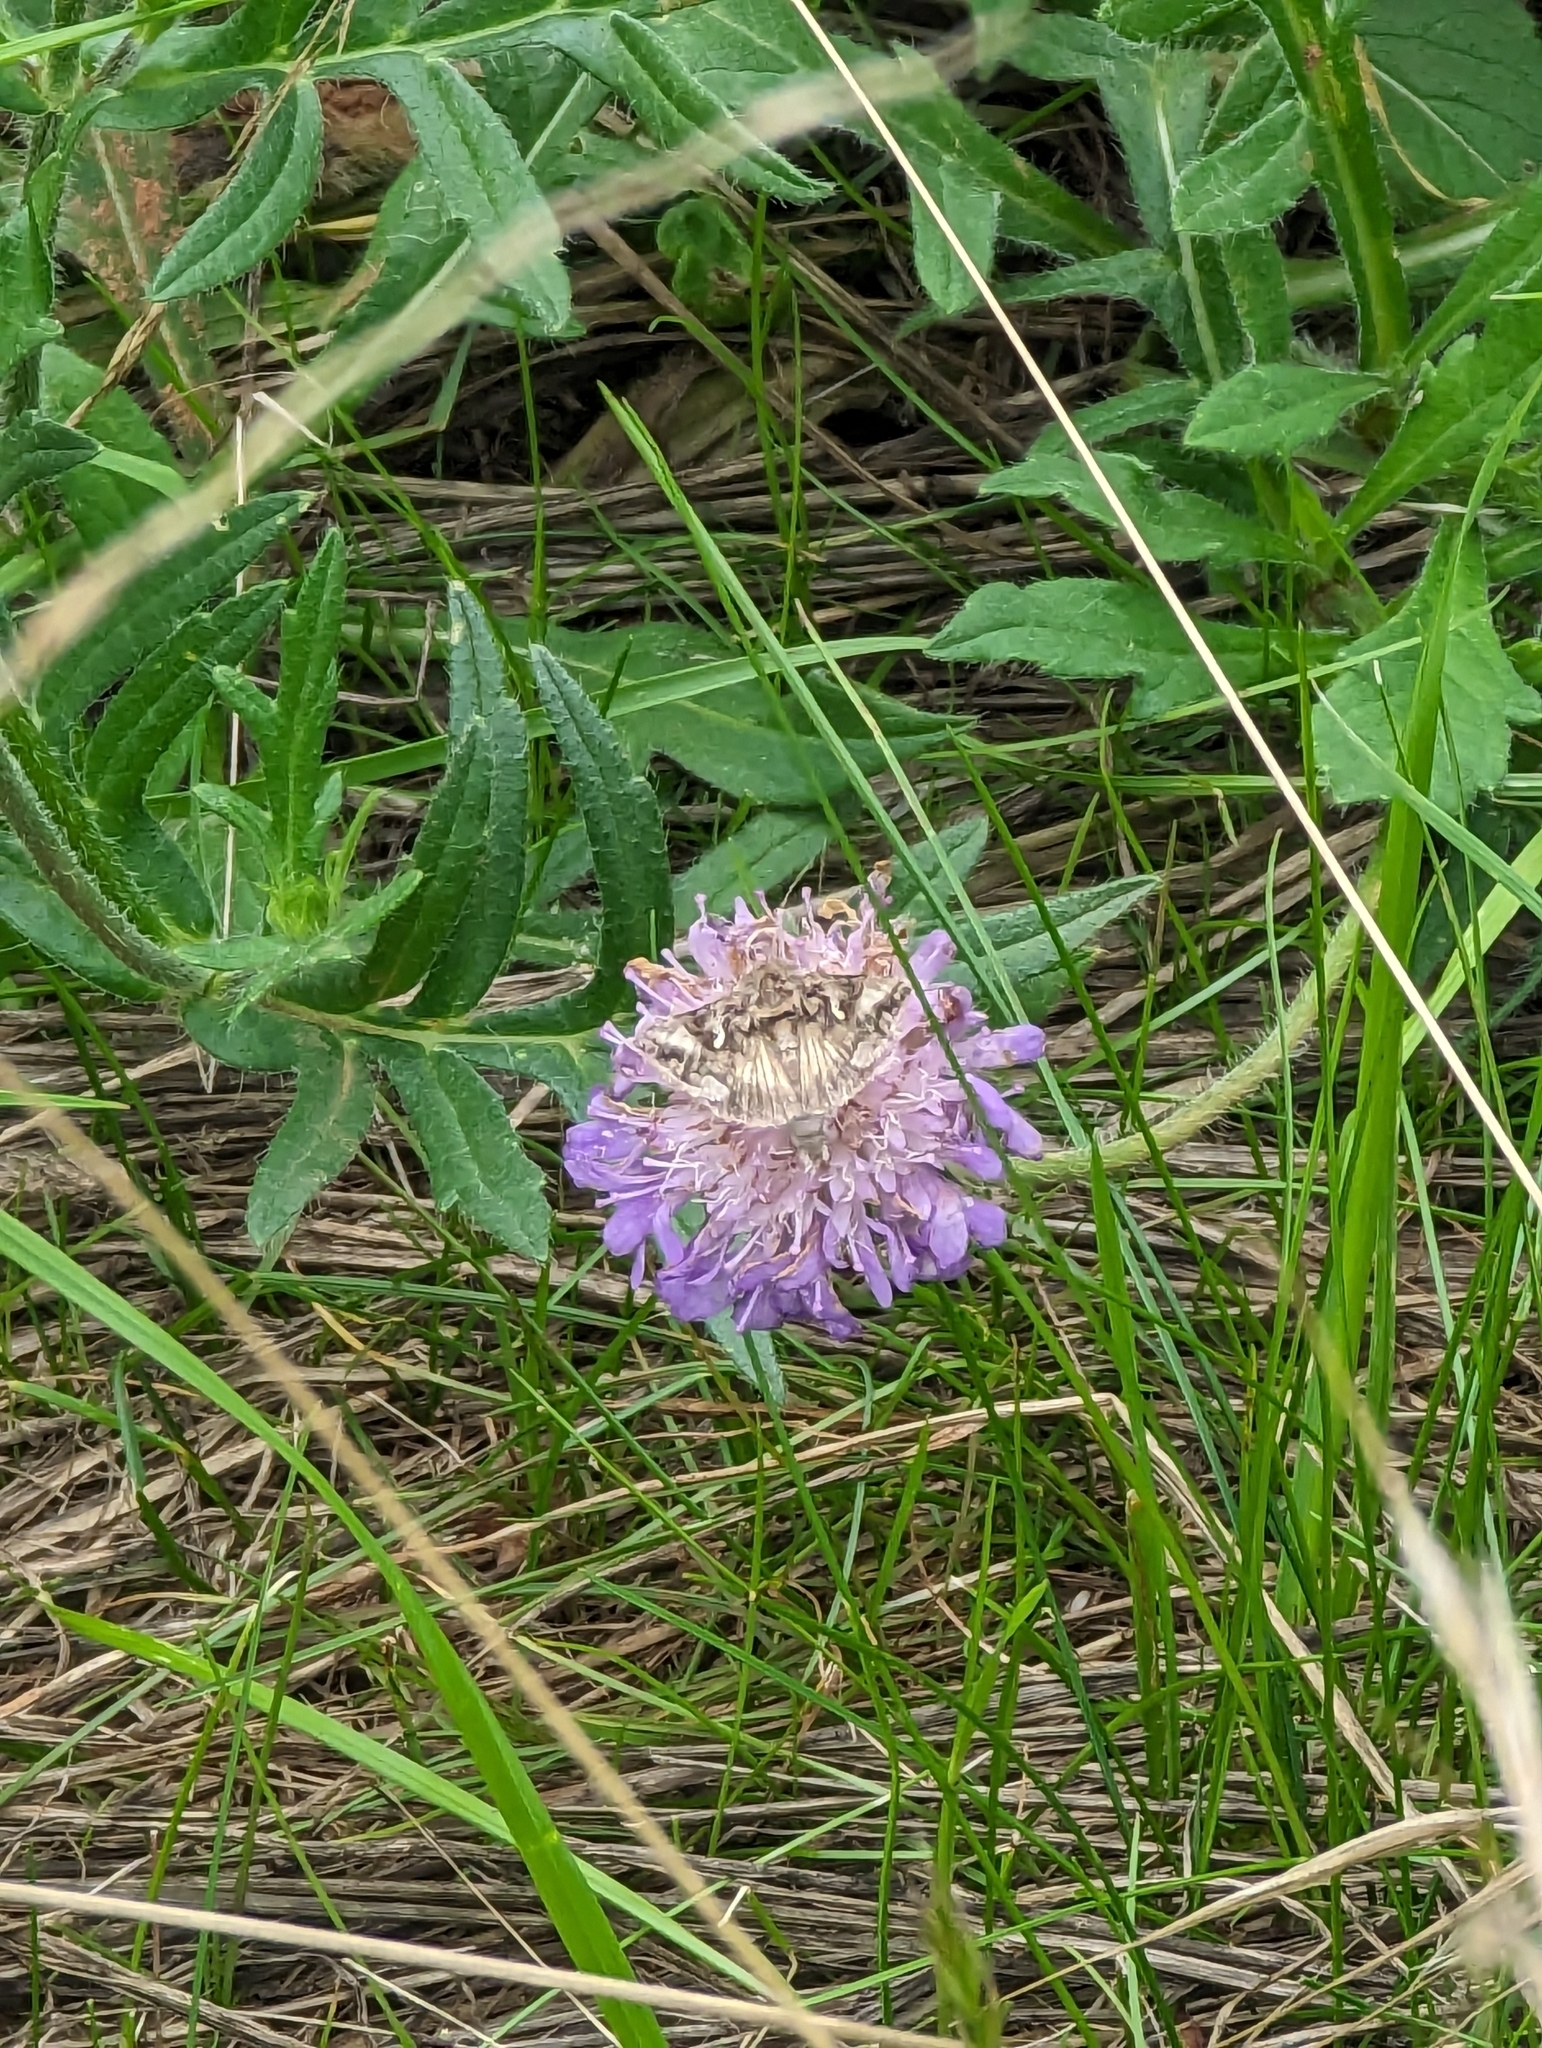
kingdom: Animalia
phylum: Arthropoda
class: Insecta
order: Lepidoptera
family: Noctuidae
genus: Autographa
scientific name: Autographa gamma
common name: Silver y
